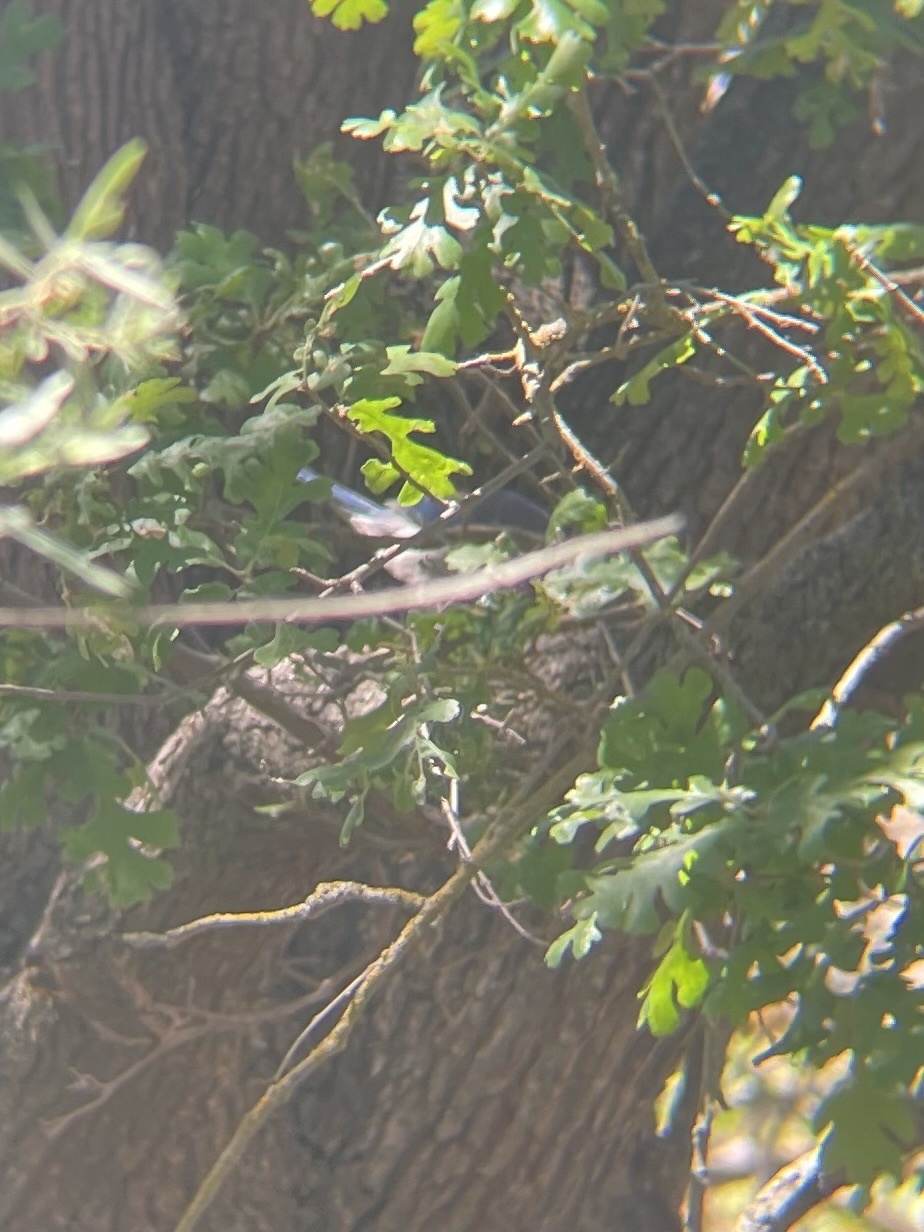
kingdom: Animalia
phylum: Chordata
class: Aves
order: Passeriformes
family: Corvidae
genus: Aphelocoma
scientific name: Aphelocoma californica
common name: California scrub-jay
